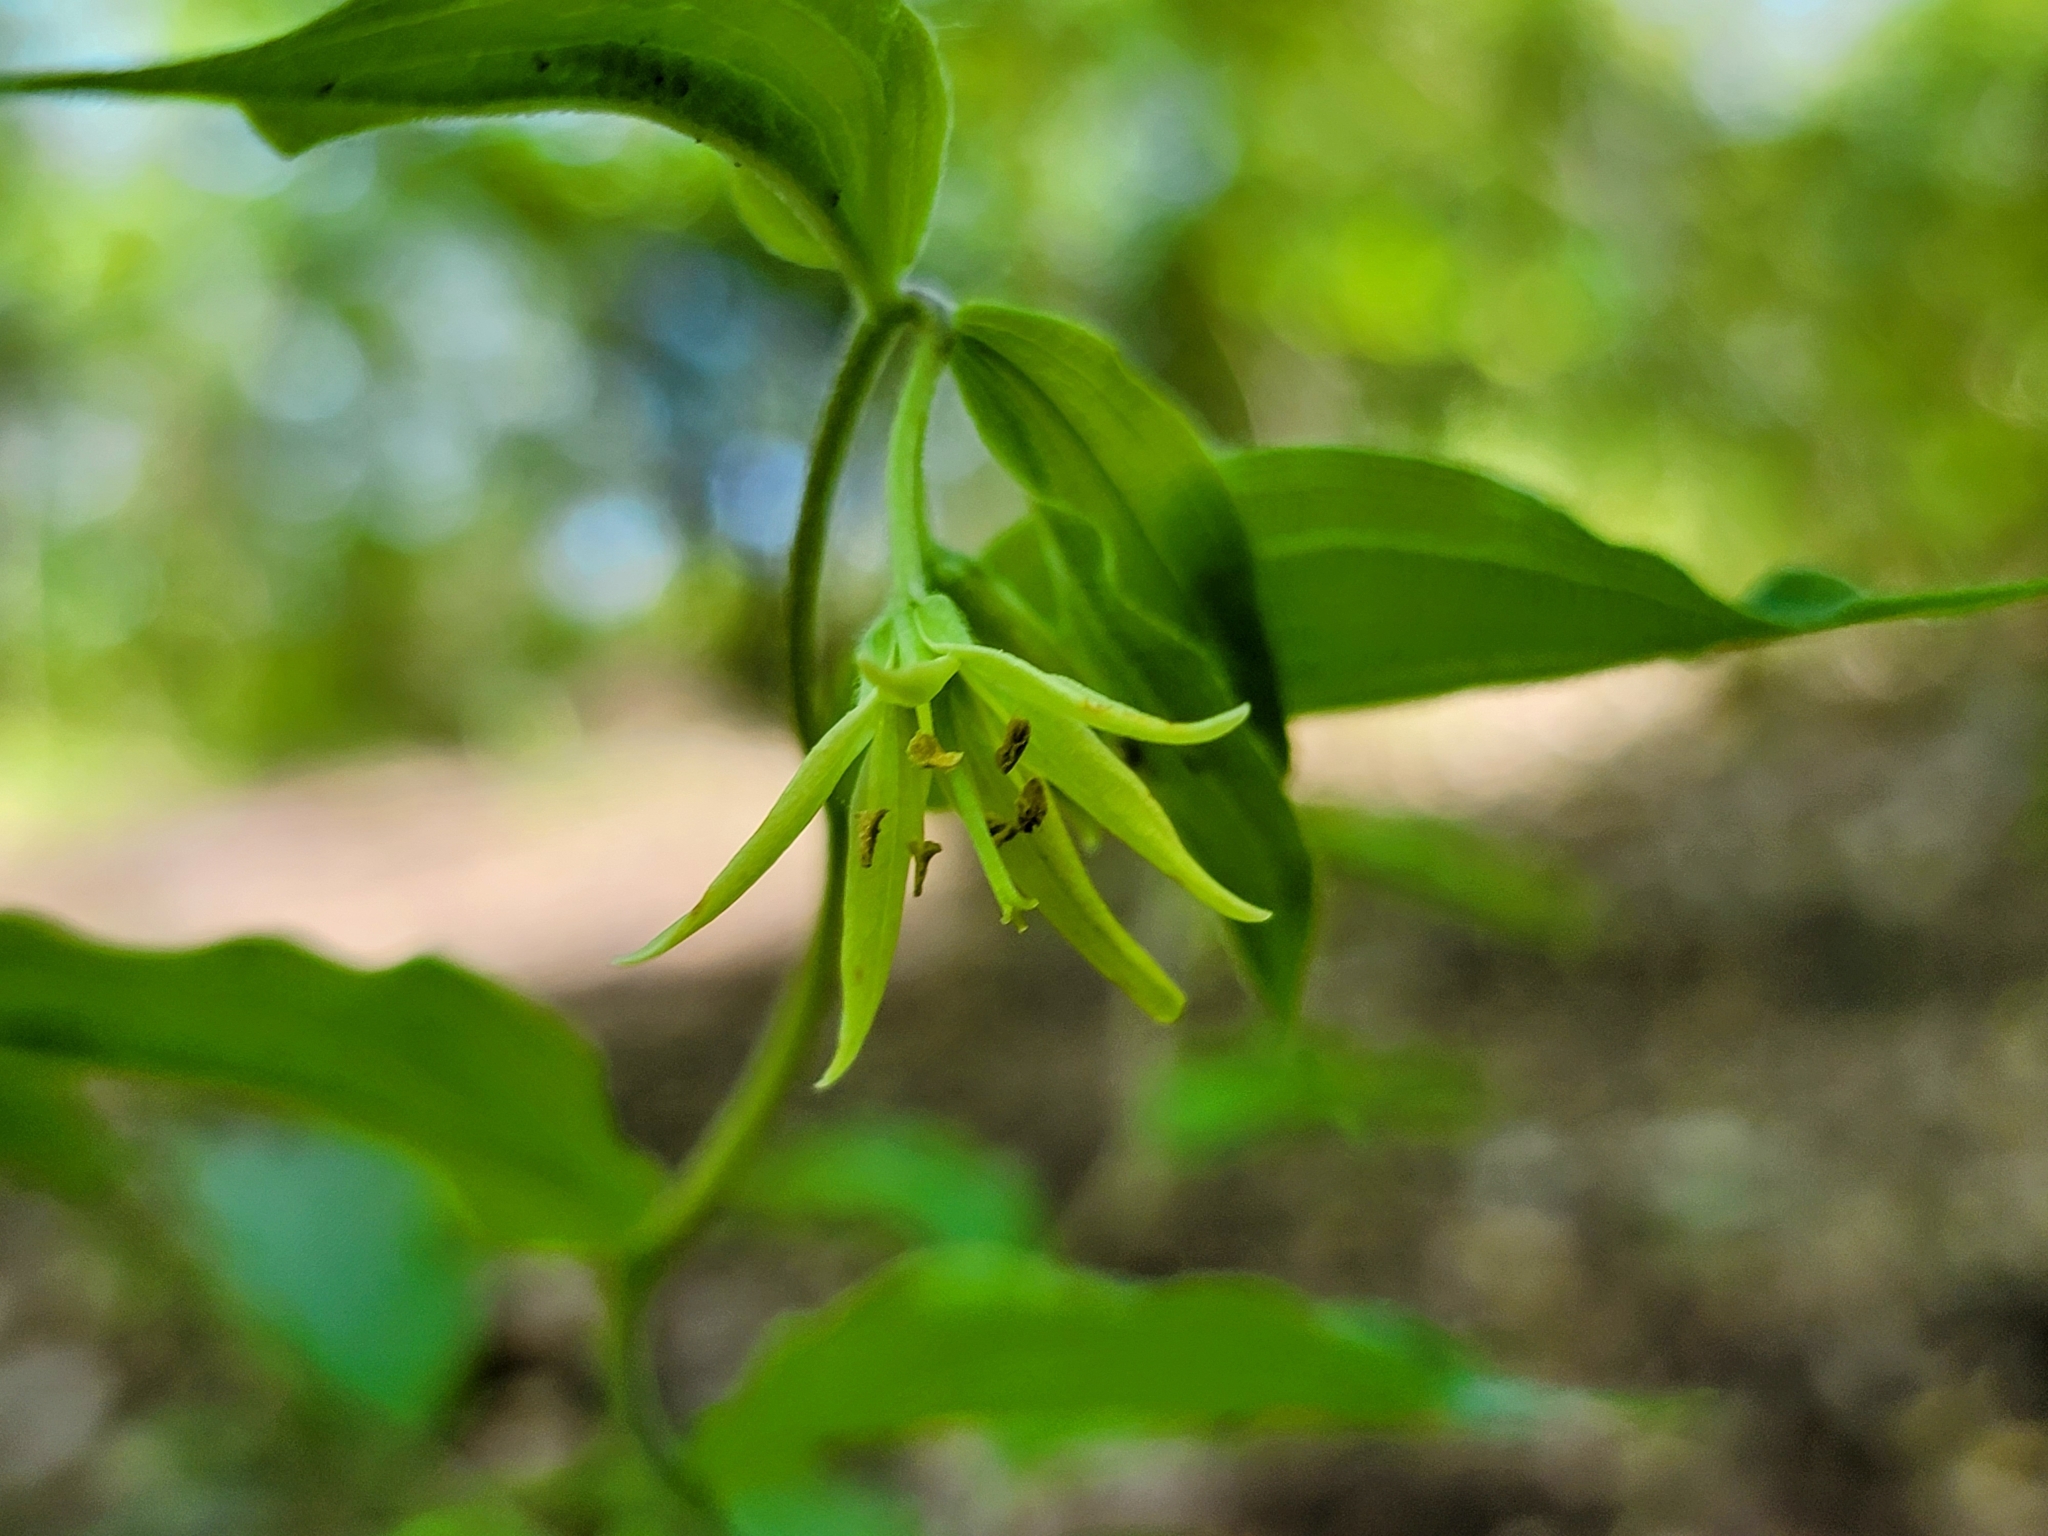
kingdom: Plantae
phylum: Tracheophyta
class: Liliopsida
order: Liliales
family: Liliaceae
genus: Prosartes
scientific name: Prosartes lanuginosa
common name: Hairy mandarin
